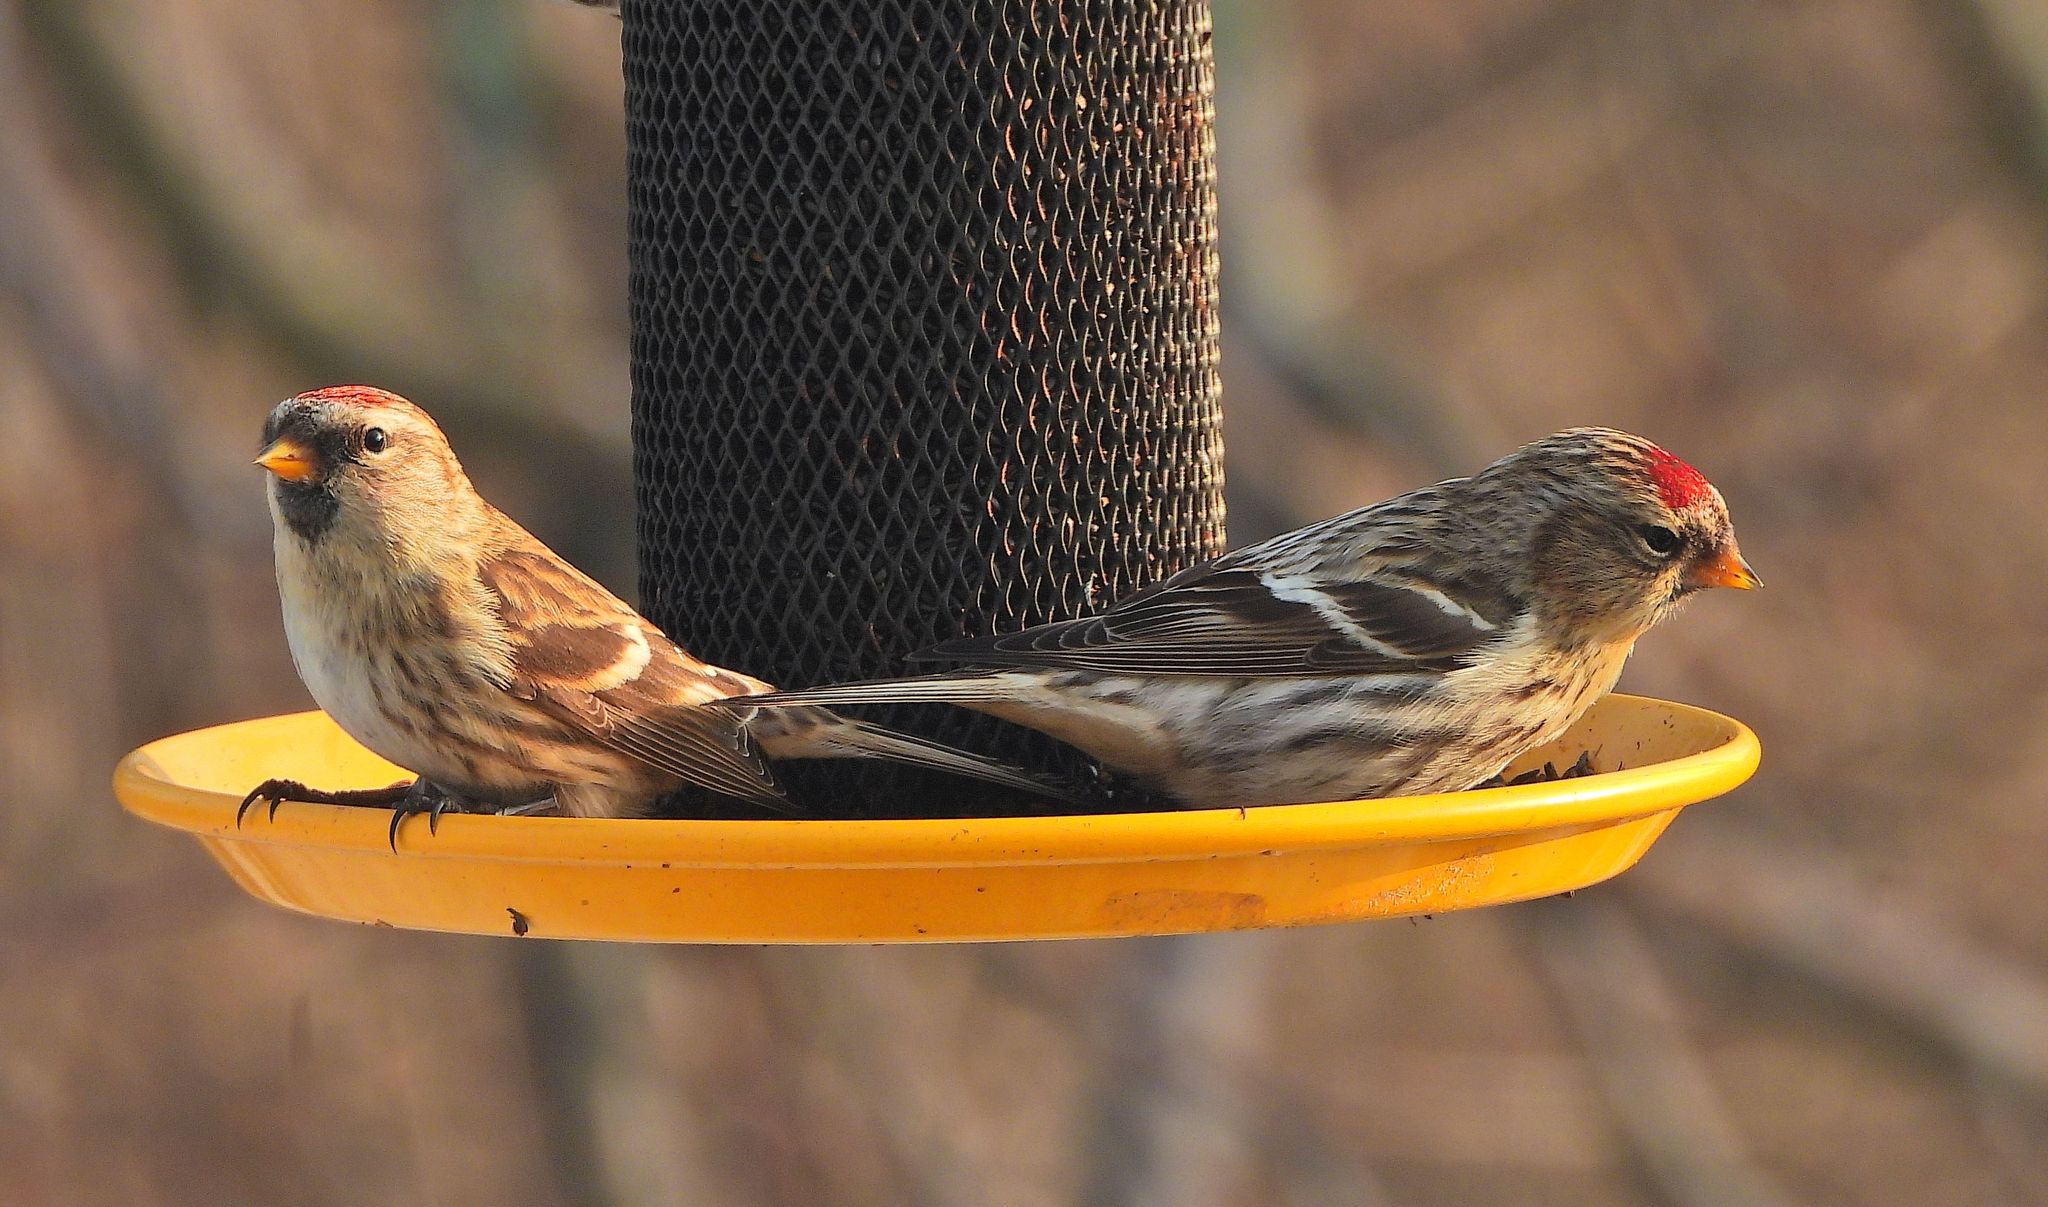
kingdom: Animalia
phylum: Chordata
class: Aves
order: Passeriformes
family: Fringillidae
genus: Acanthis
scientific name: Acanthis flammea
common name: Common redpoll
